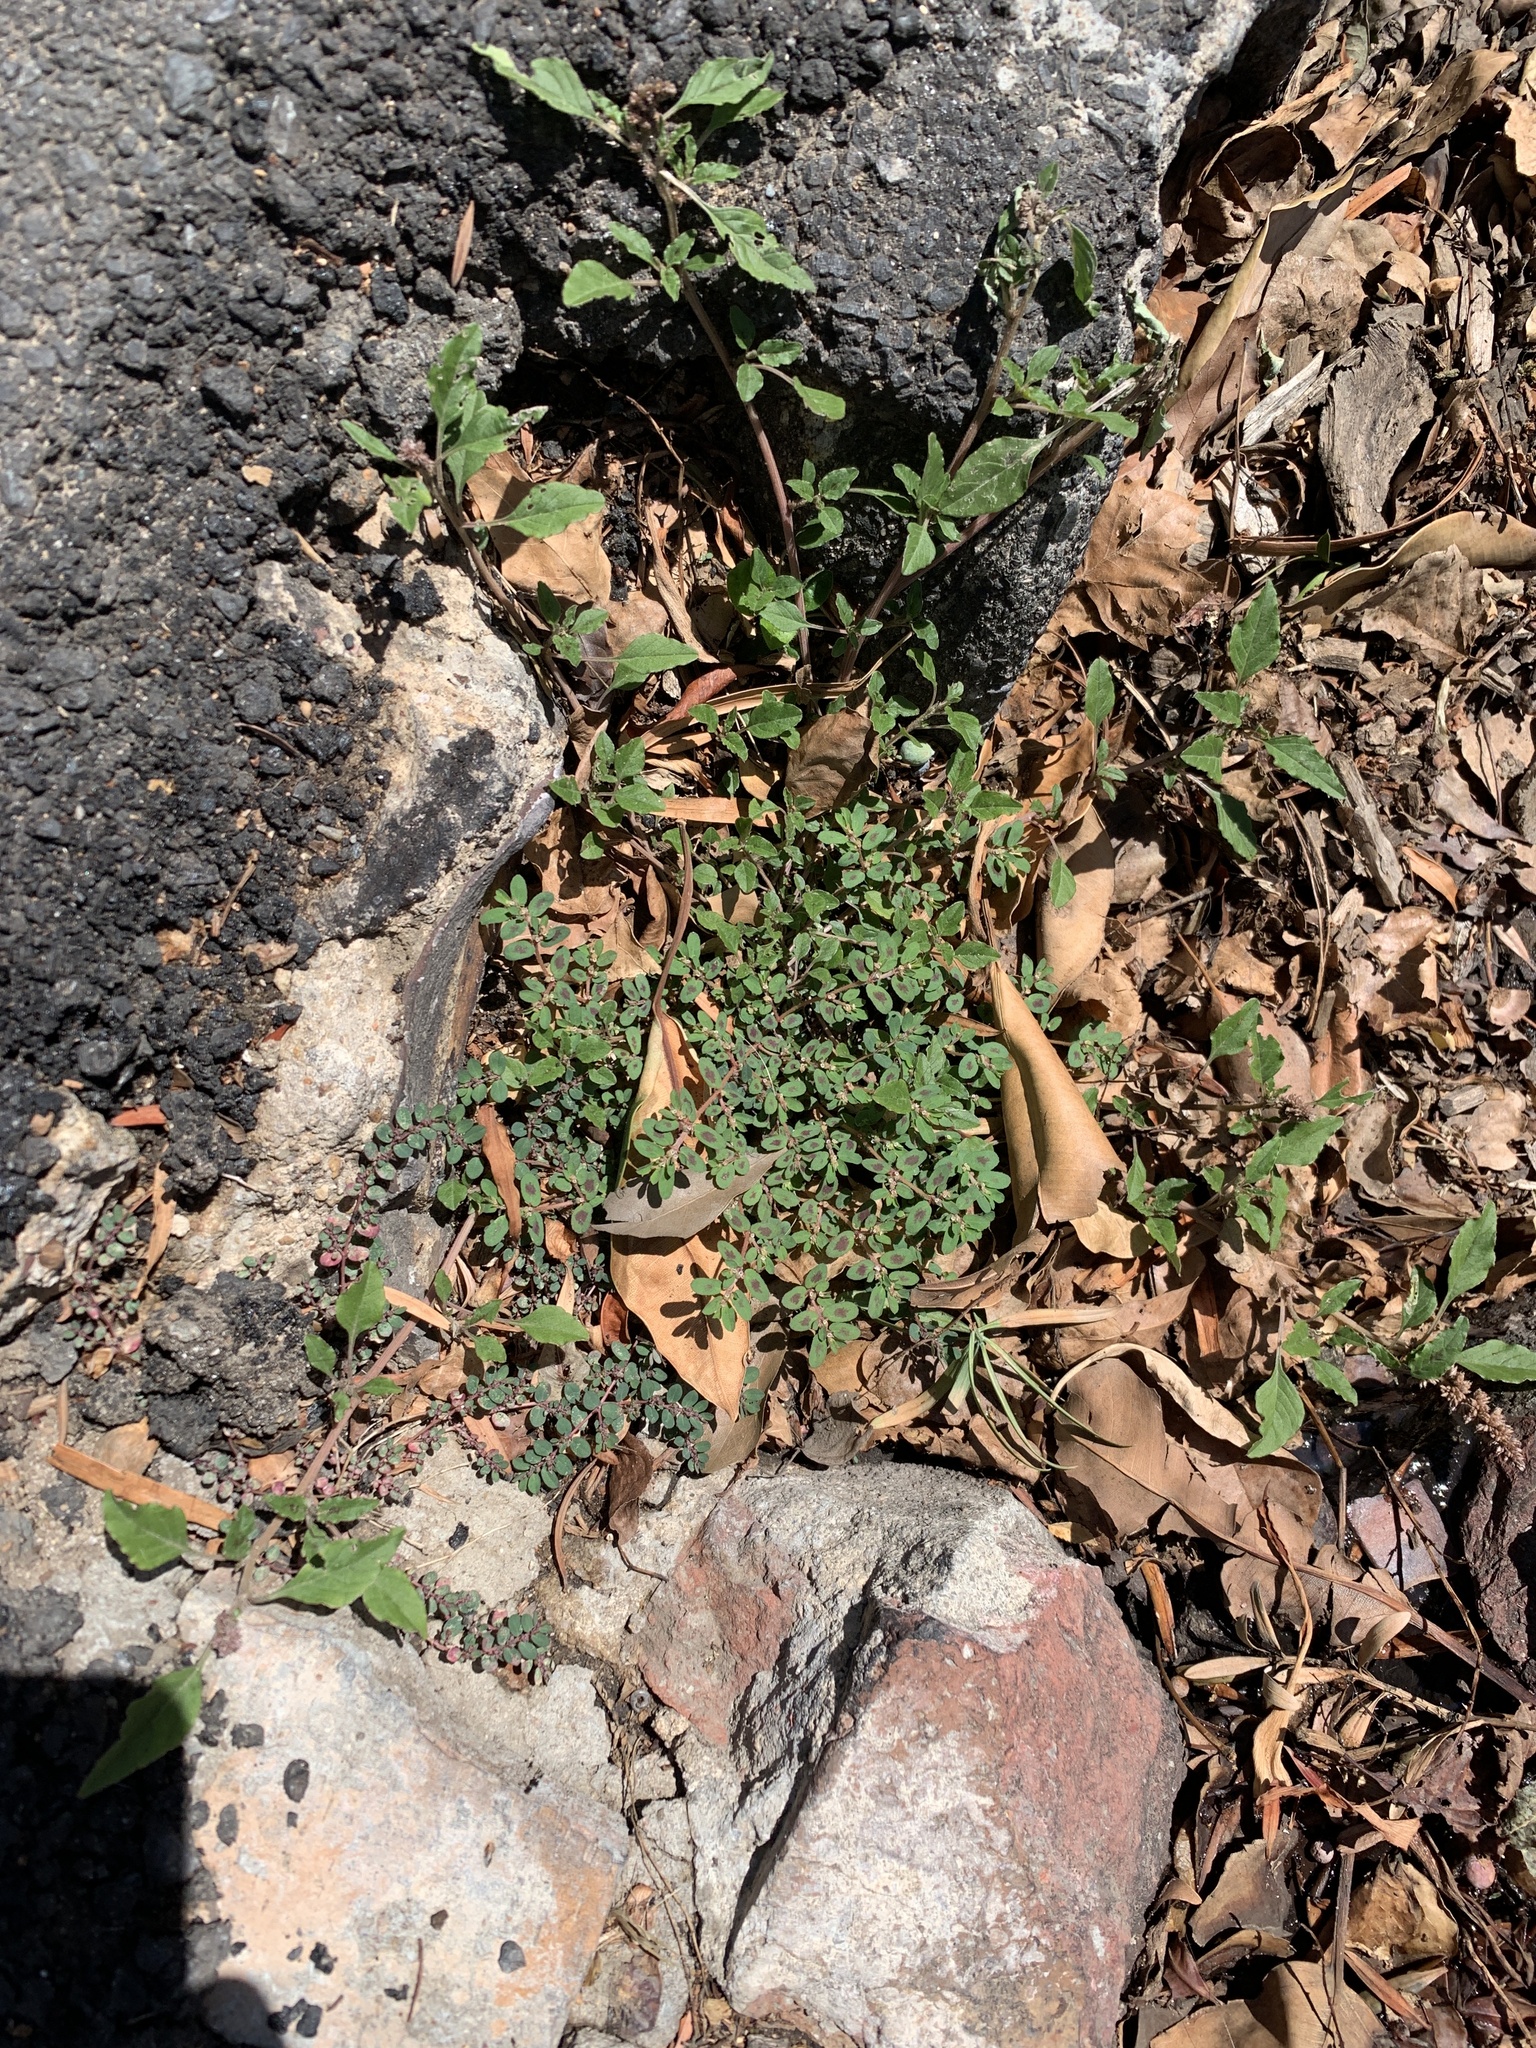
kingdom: Plantae
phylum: Tracheophyta
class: Magnoliopsida
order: Malpighiales
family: Euphorbiaceae
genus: Euphorbia
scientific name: Euphorbia maculata
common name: Spotted spurge
